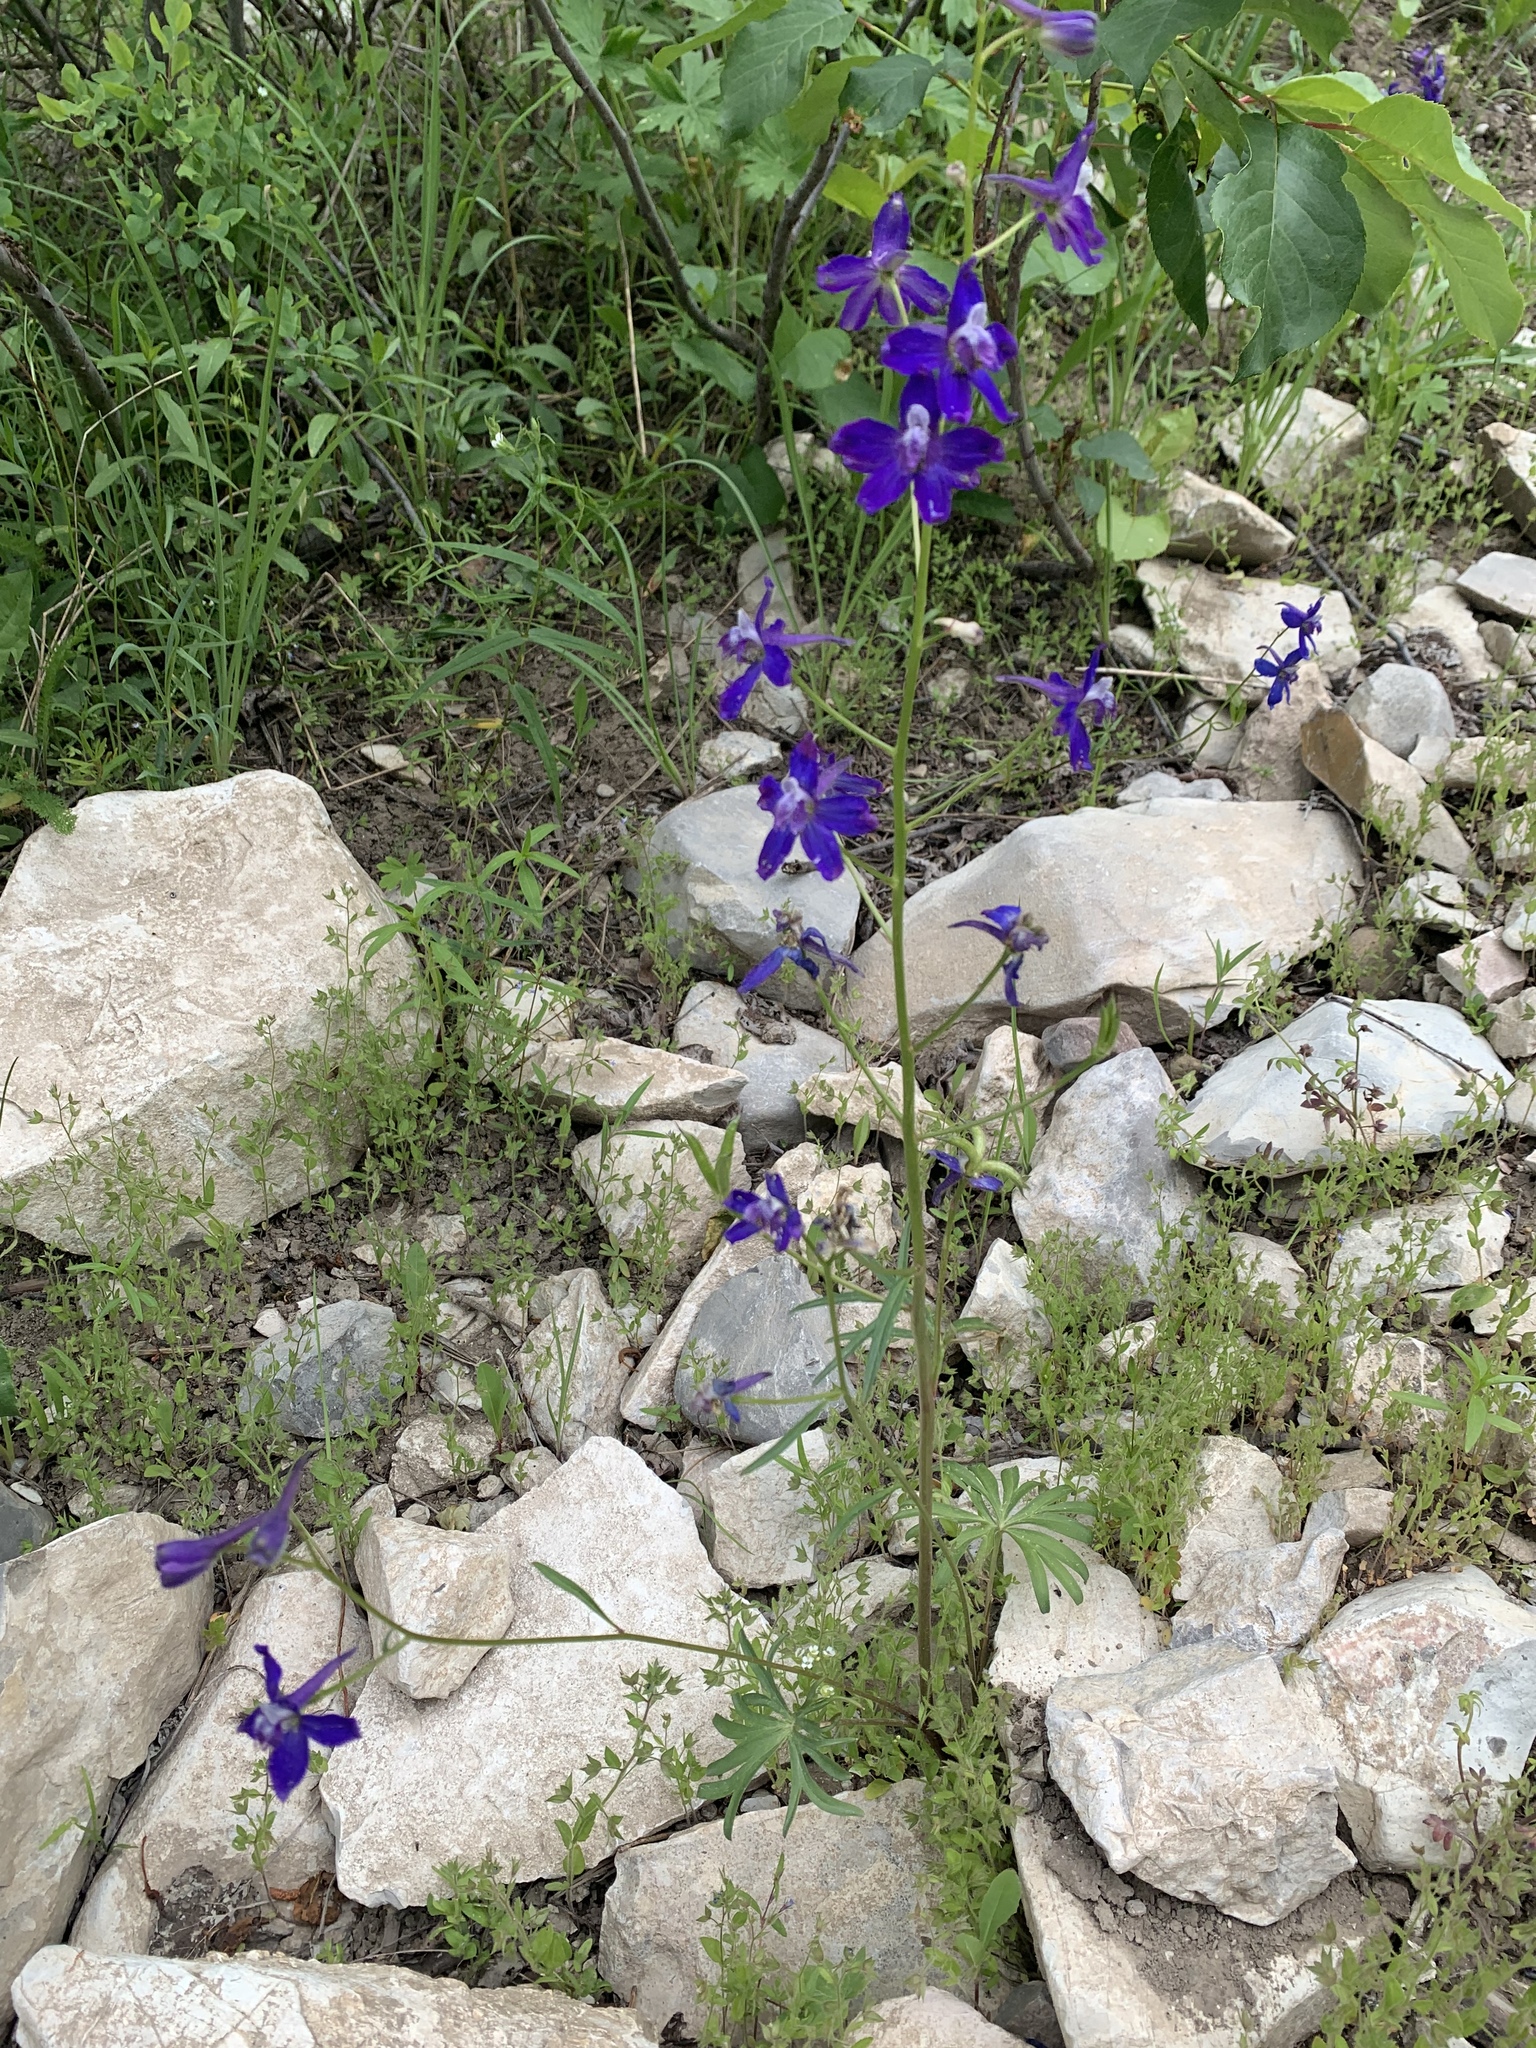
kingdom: Plantae
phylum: Tracheophyta
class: Magnoliopsida
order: Ranunculales
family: Ranunculaceae
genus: Delphinium
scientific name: Delphinium nuttallianum
